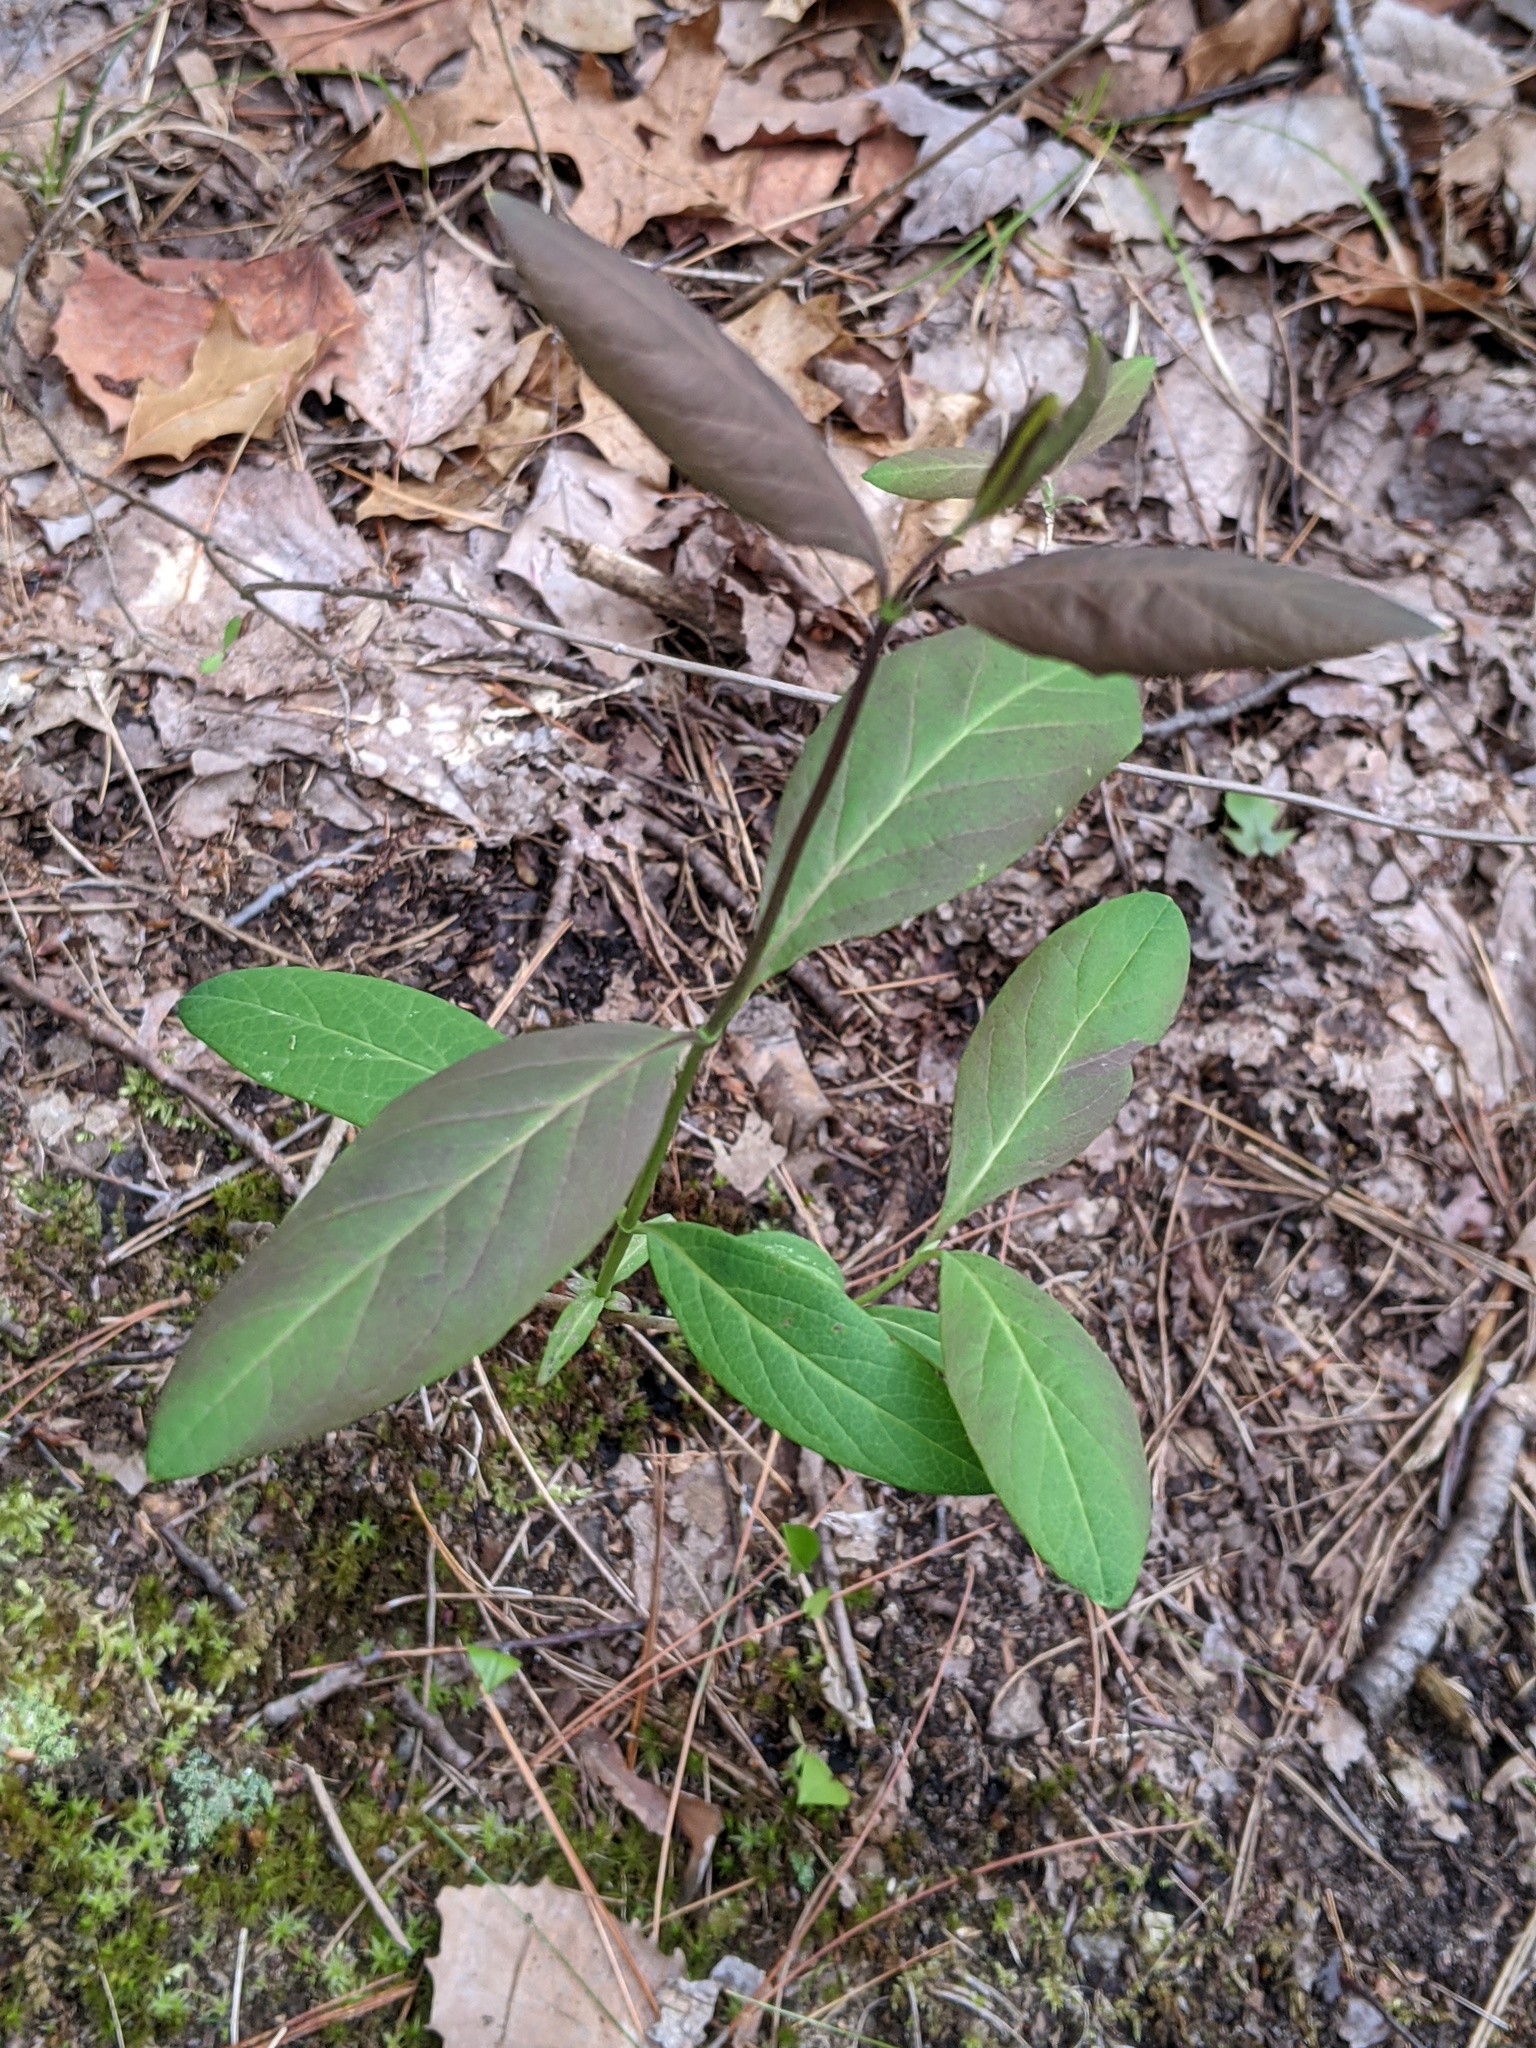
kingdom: Plantae
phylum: Tracheophyta
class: Magnoliopsida
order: Dipsacales
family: Caprifoliaceae
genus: Lonicera
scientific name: Lonicera dioica
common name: Limber honeysuckle
